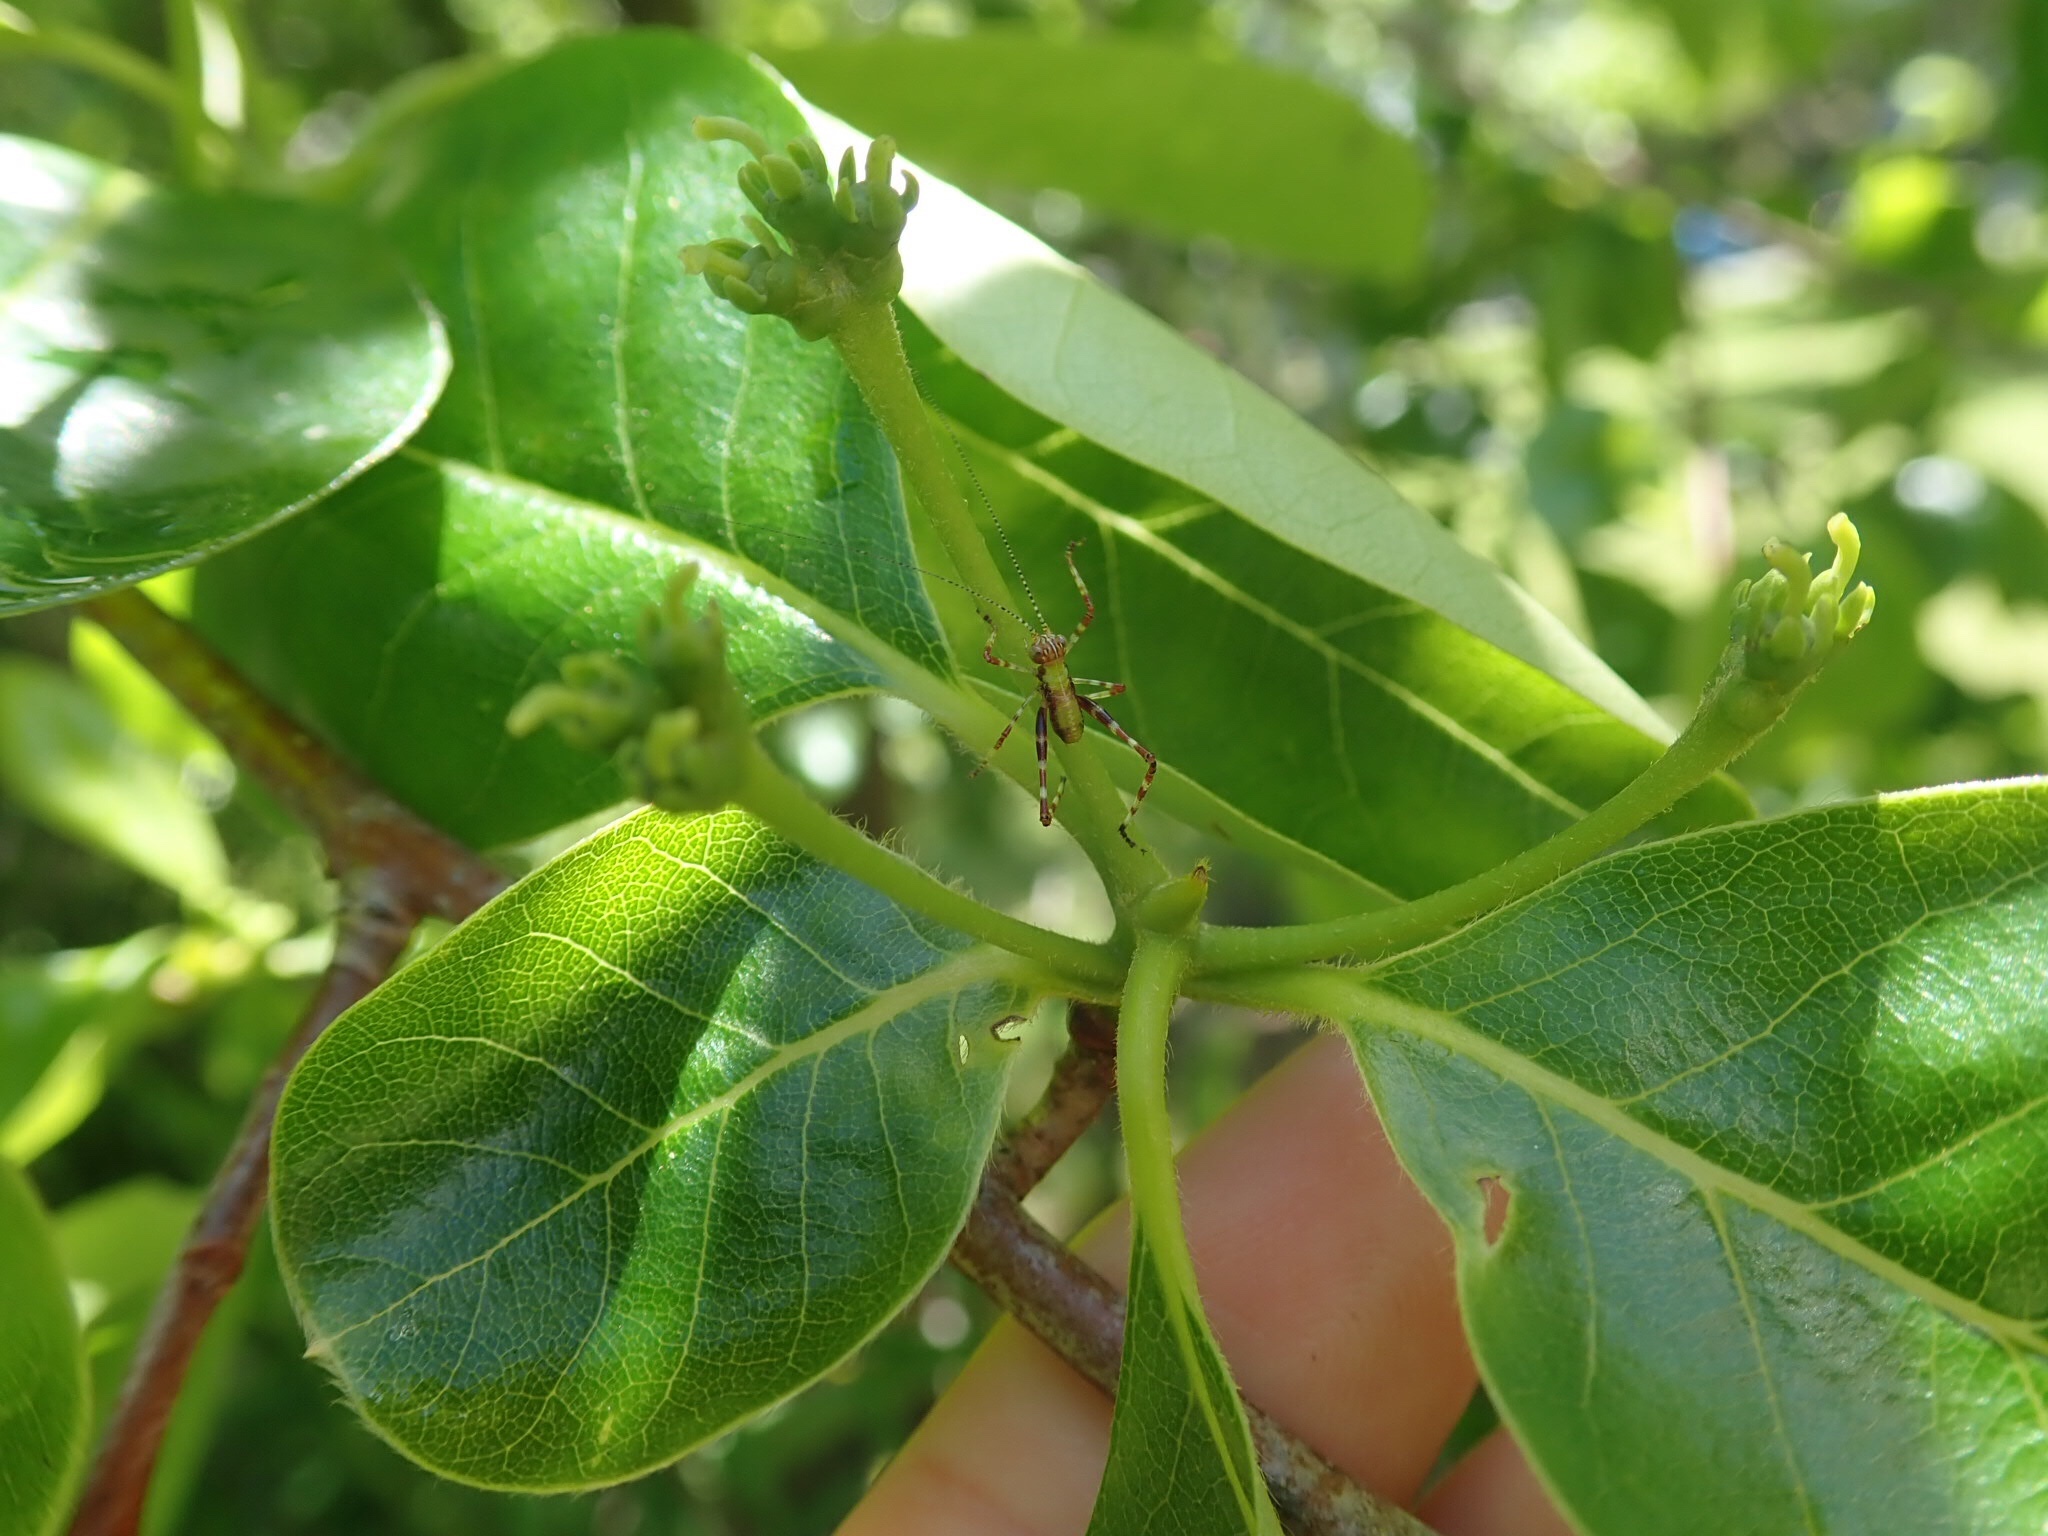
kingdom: Animalia
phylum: Arthropoda
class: Insecta
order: Orthoptera
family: Tettigoniidae
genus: Caedicia
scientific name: Caedicia simplex
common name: Common garden katydid
